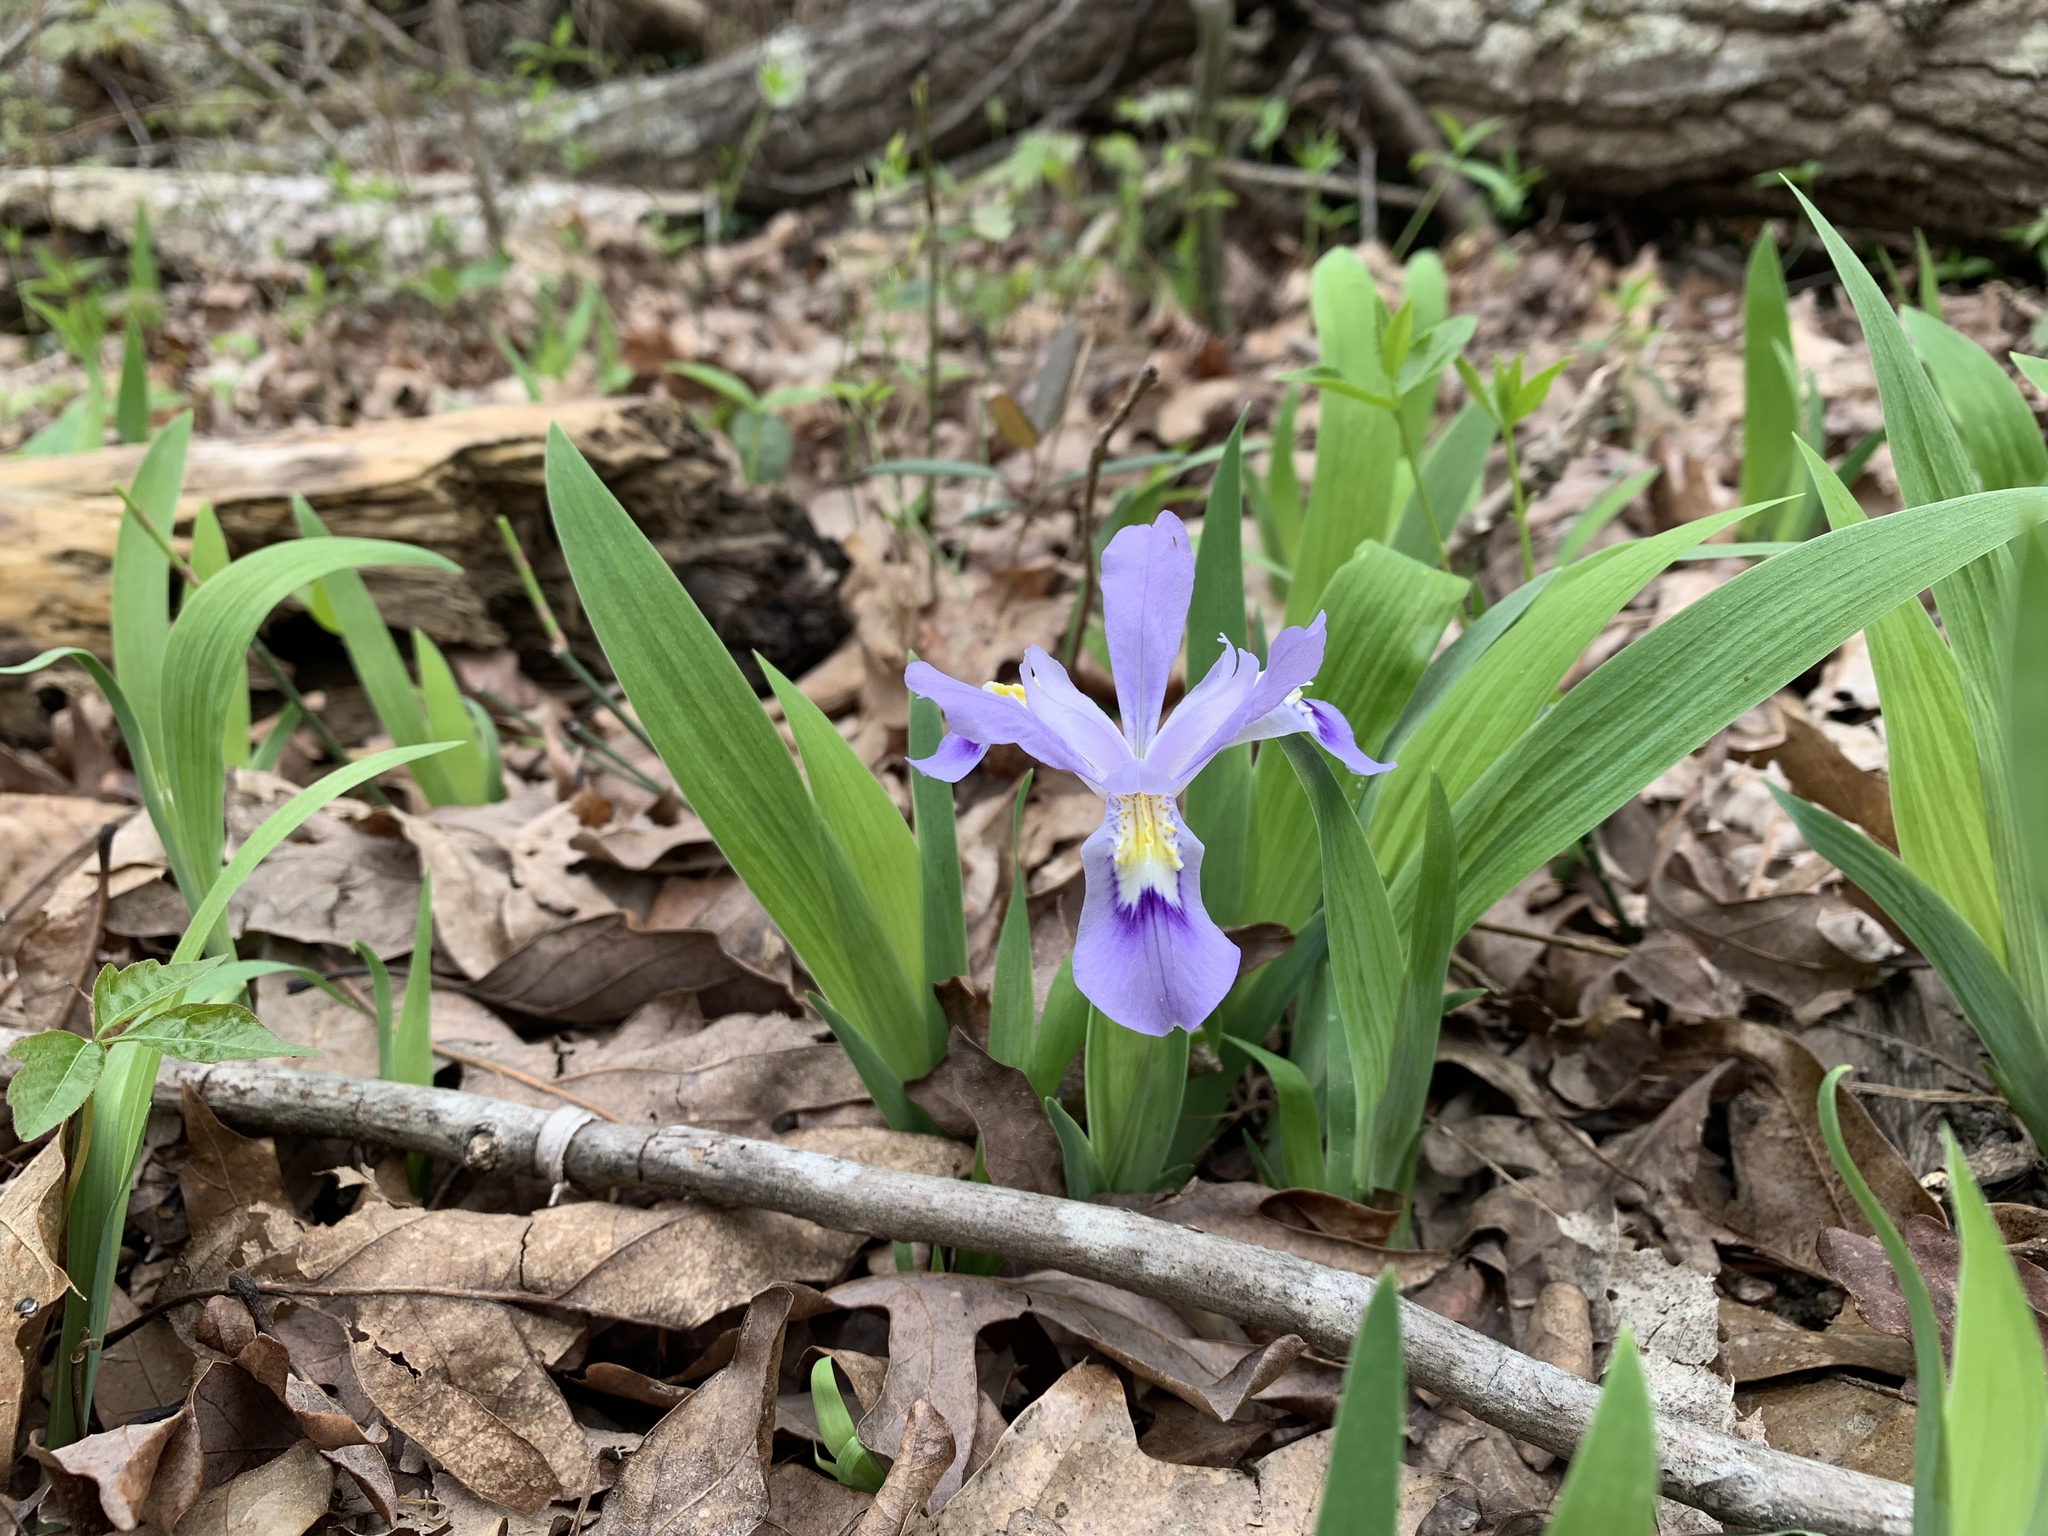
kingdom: Plantae
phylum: Tracheophyta
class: Liliopsida
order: Asparagales
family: Iridaceae
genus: Iris
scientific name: Iris cristata
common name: Crested iris
